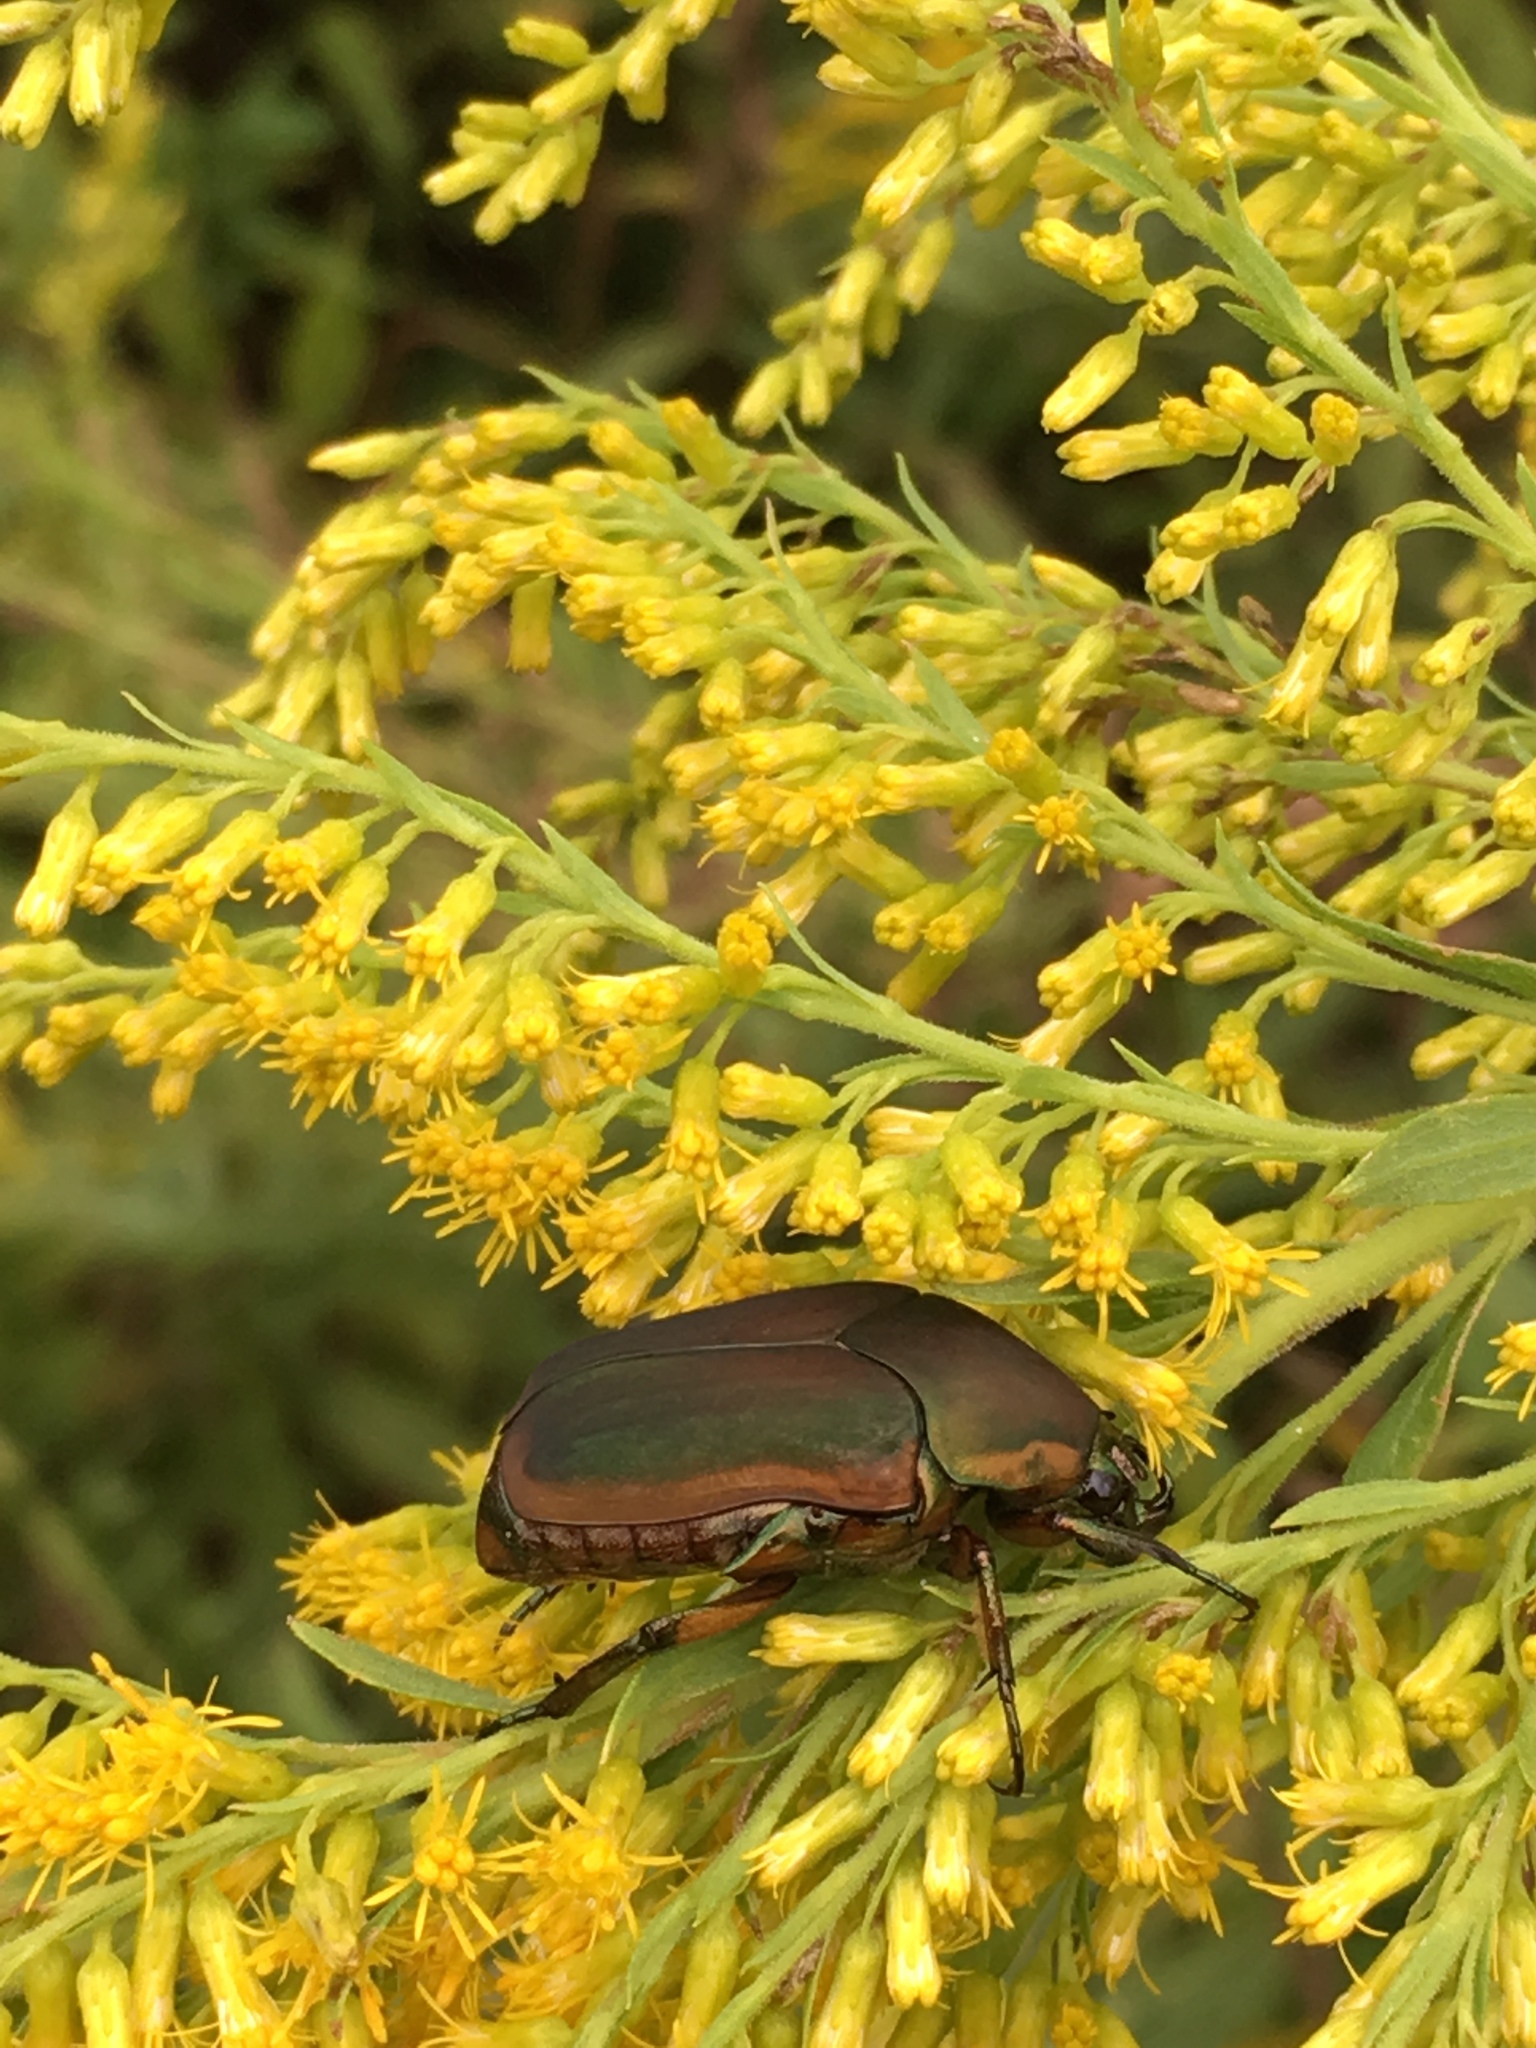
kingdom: Animalia
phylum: Arthropoda
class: Insecta
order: Coleoptera
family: Scarabaeidae
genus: Cotinis
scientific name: Cotinis nitida
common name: Common green june beetle
